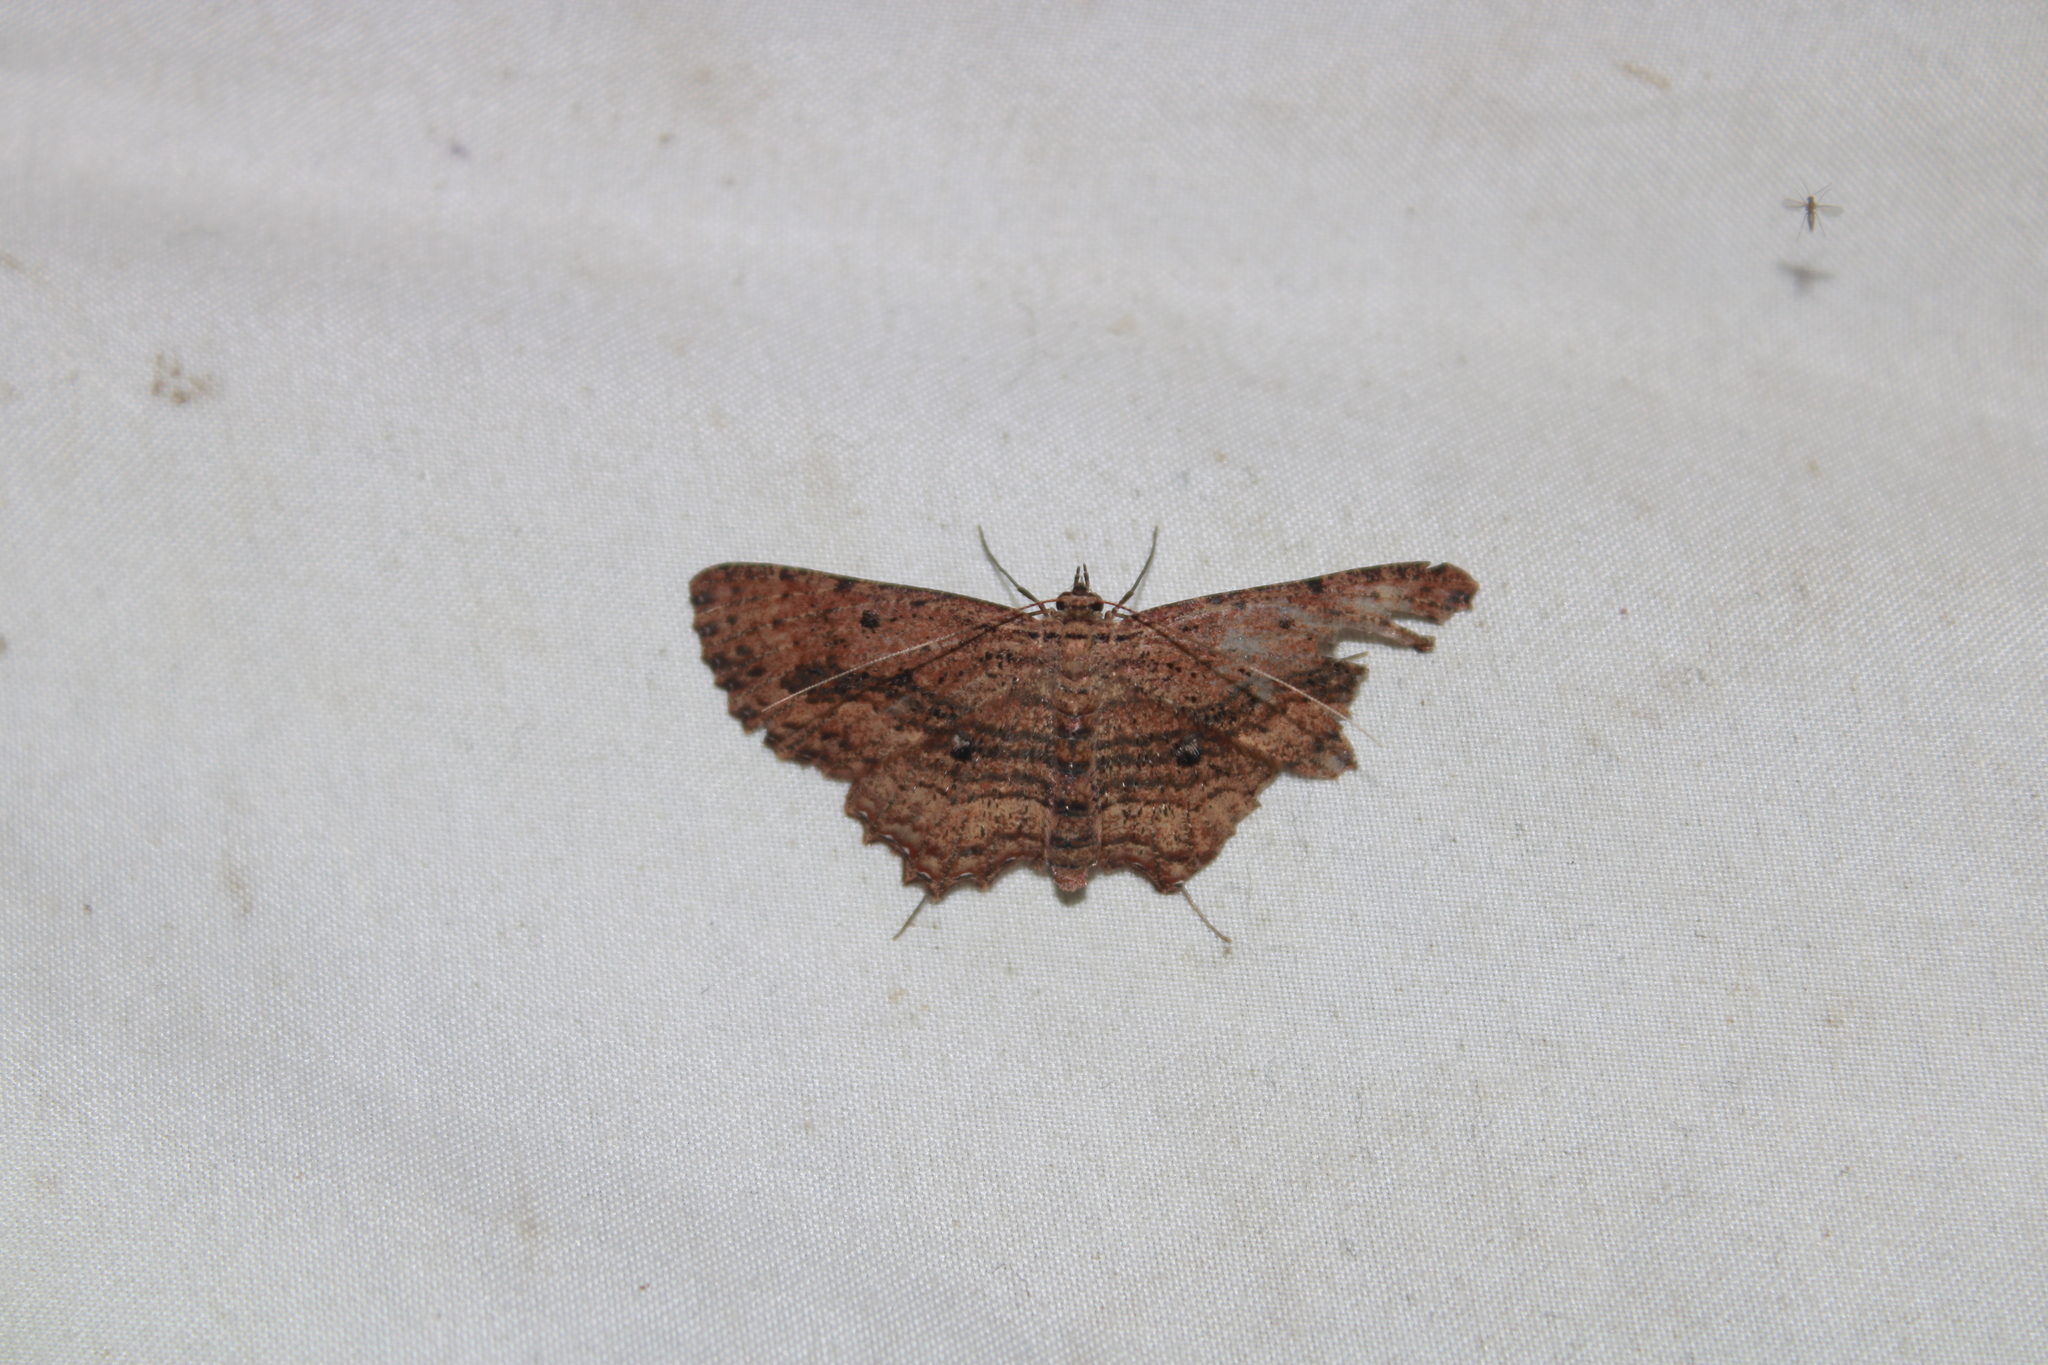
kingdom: Animalia
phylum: Arthropoda
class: Insecta
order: Lepidoptera
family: Geometridae
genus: Almodes
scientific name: Almodes terraria
